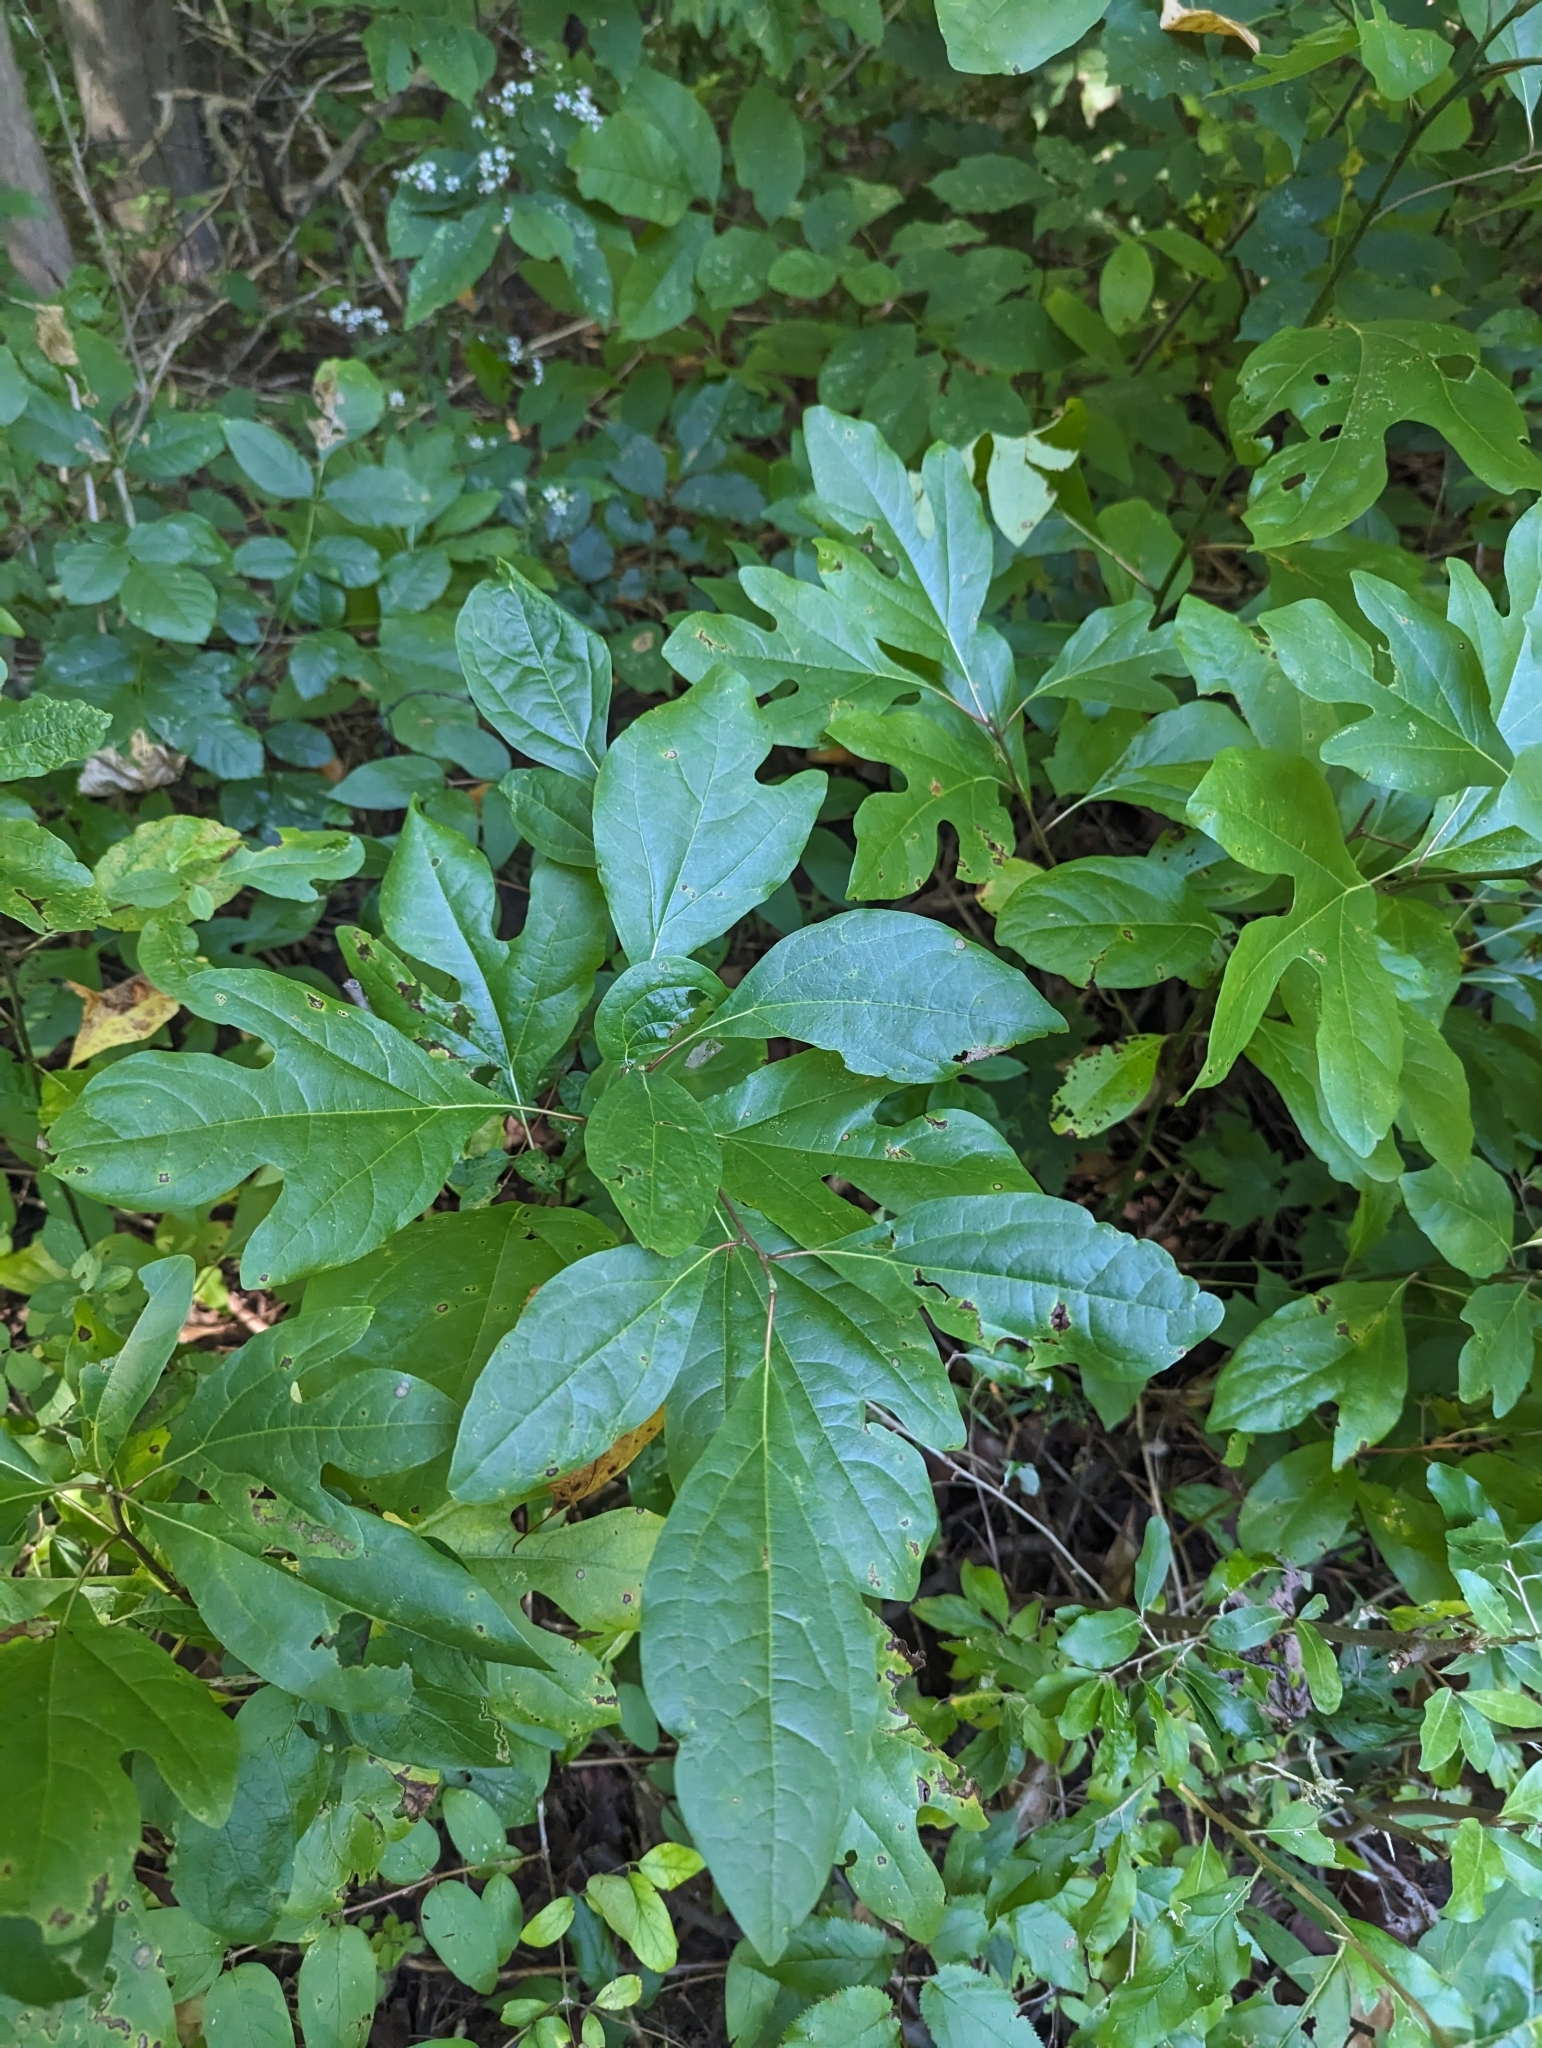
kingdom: Plantae
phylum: Tracheophyta
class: Magnoliopsida
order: Laurales
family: Lauraceae
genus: Sassafras
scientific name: Sassafras albidum
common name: Sassafras
